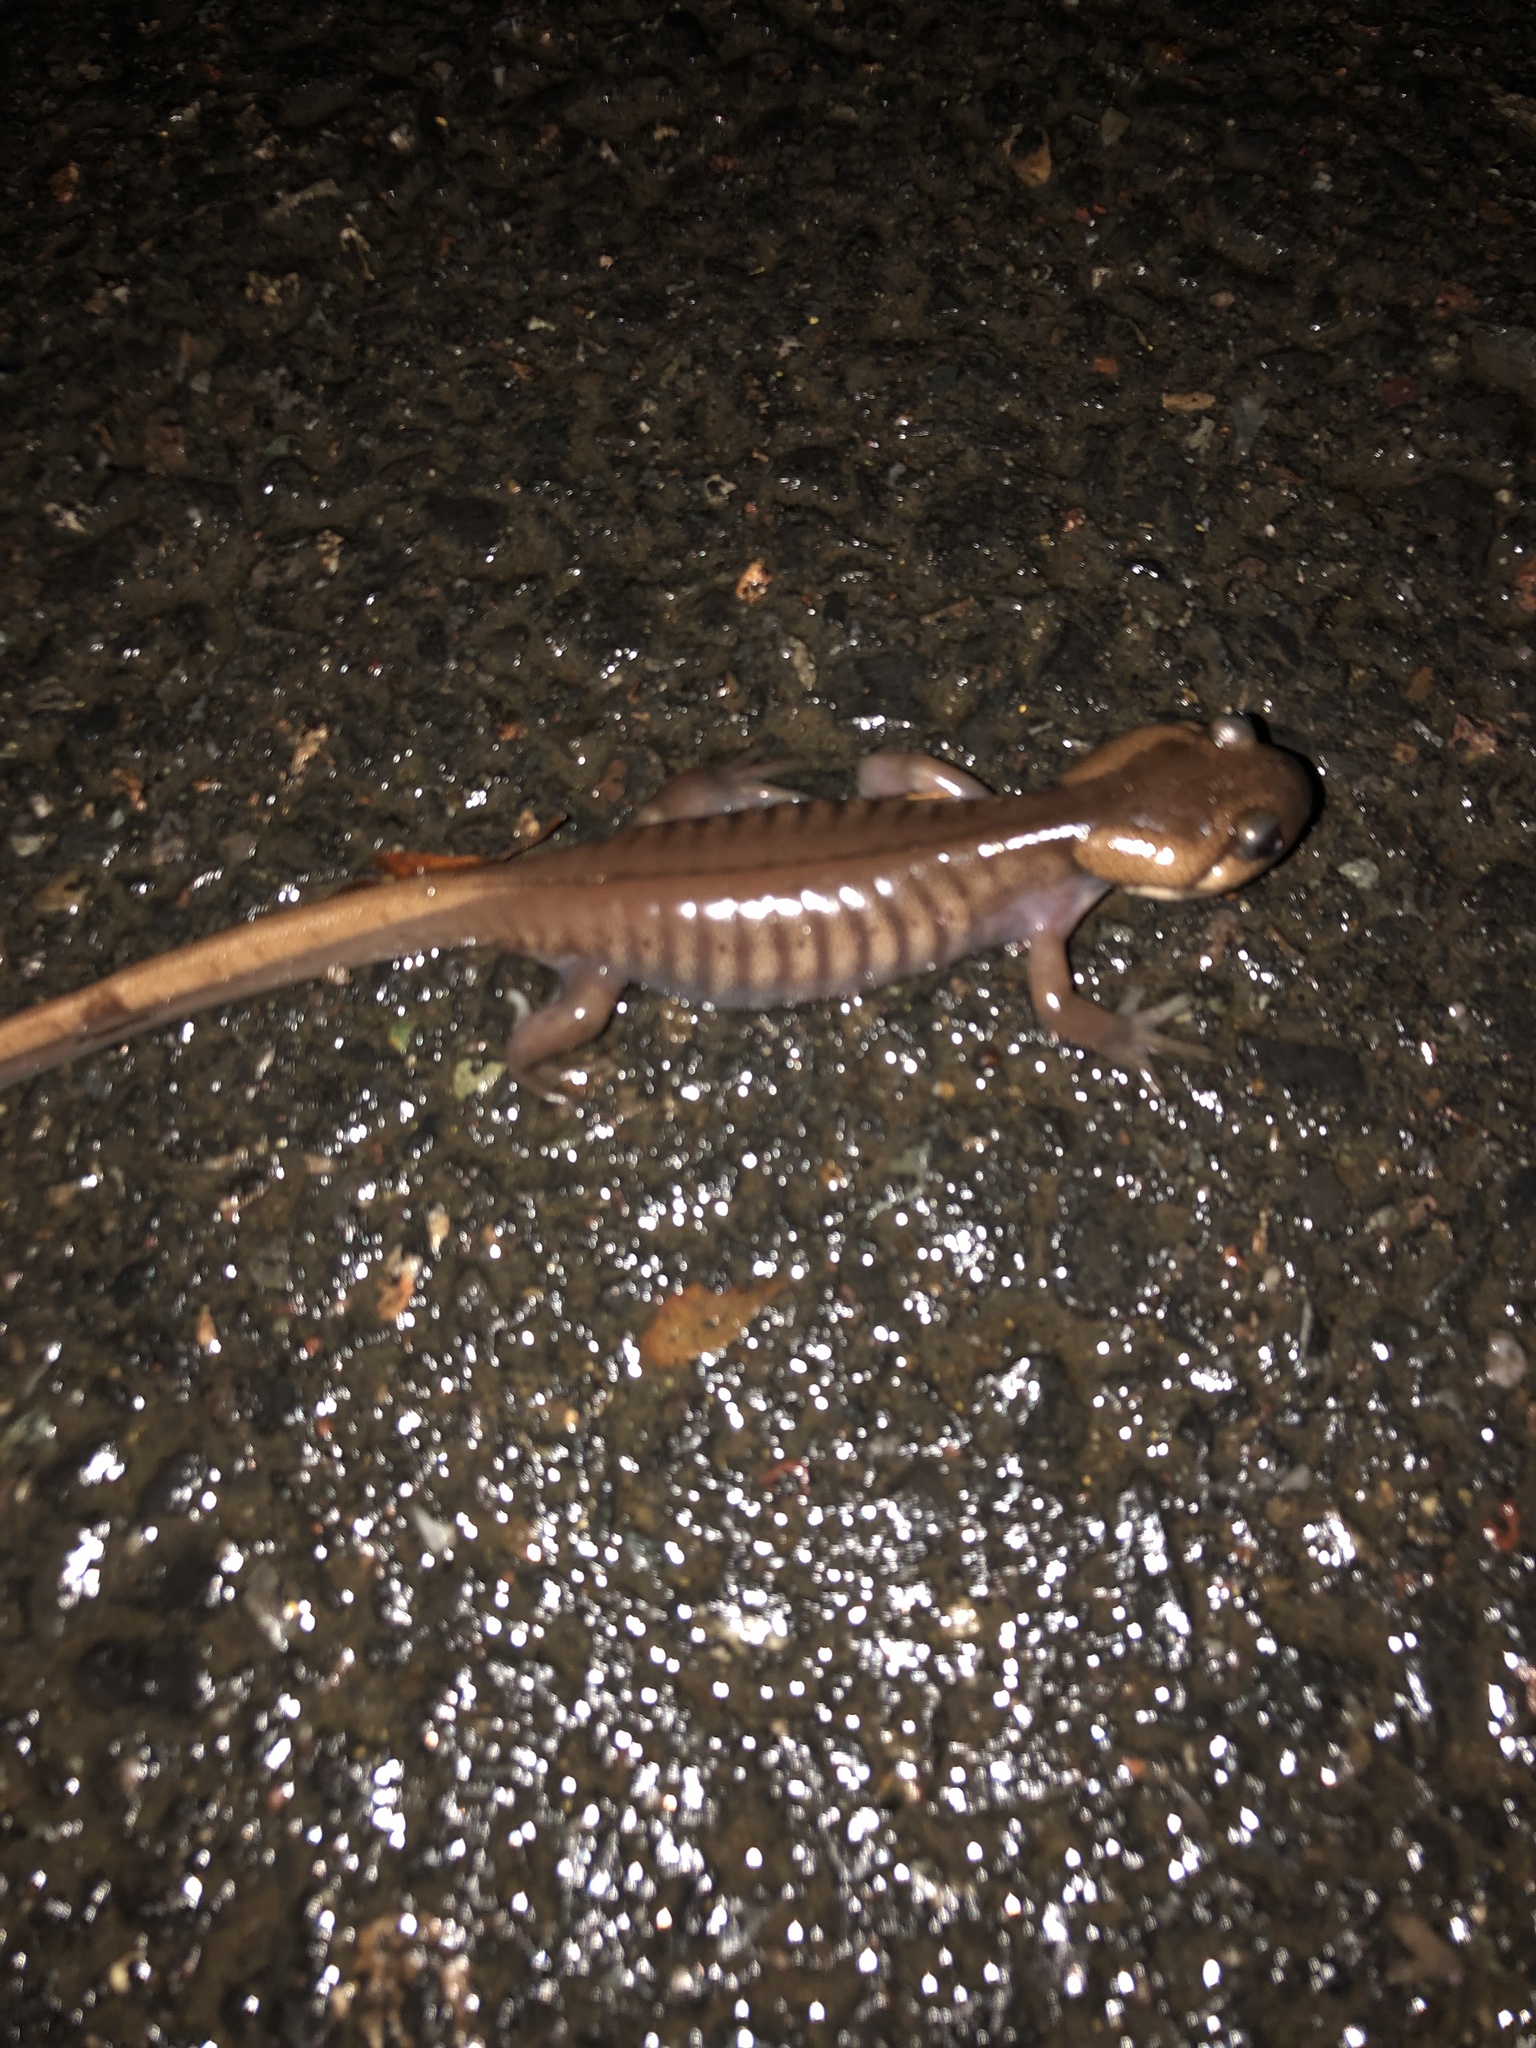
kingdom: Animalia
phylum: Chordata
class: Amphibia
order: Caudata
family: Ambystomatidae
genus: Ambystoma
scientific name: Ambystoma gracile
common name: Northwestern salamander
